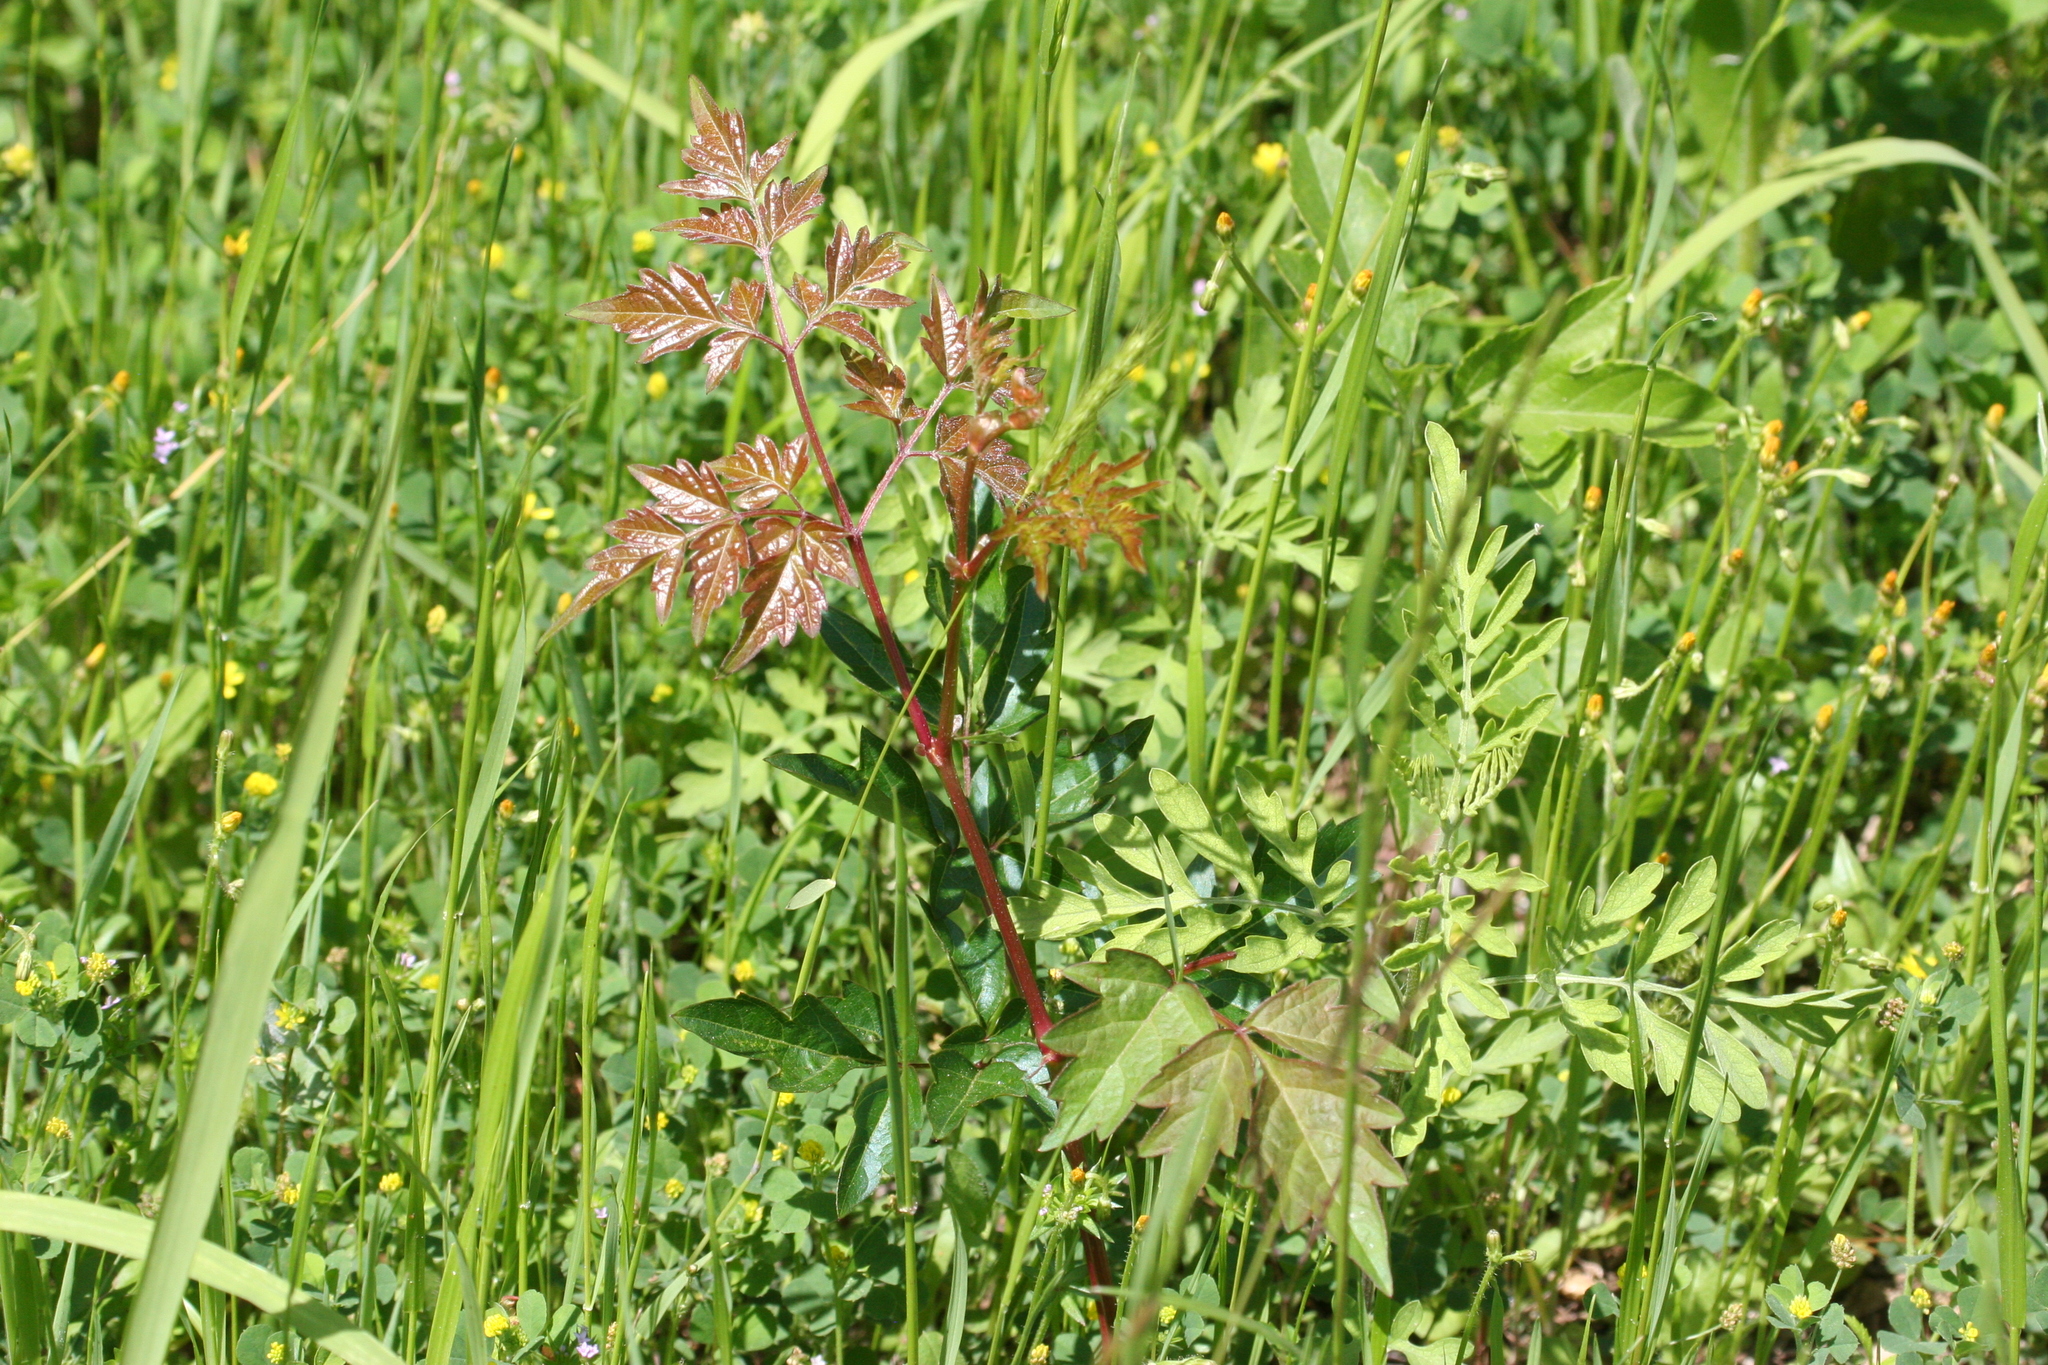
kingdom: Plantae
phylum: Tracheophyta
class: Magnoliopsida
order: Vitales
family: Vitaceae
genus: Nekemias
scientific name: Nekemias arborea
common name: Peppervine
